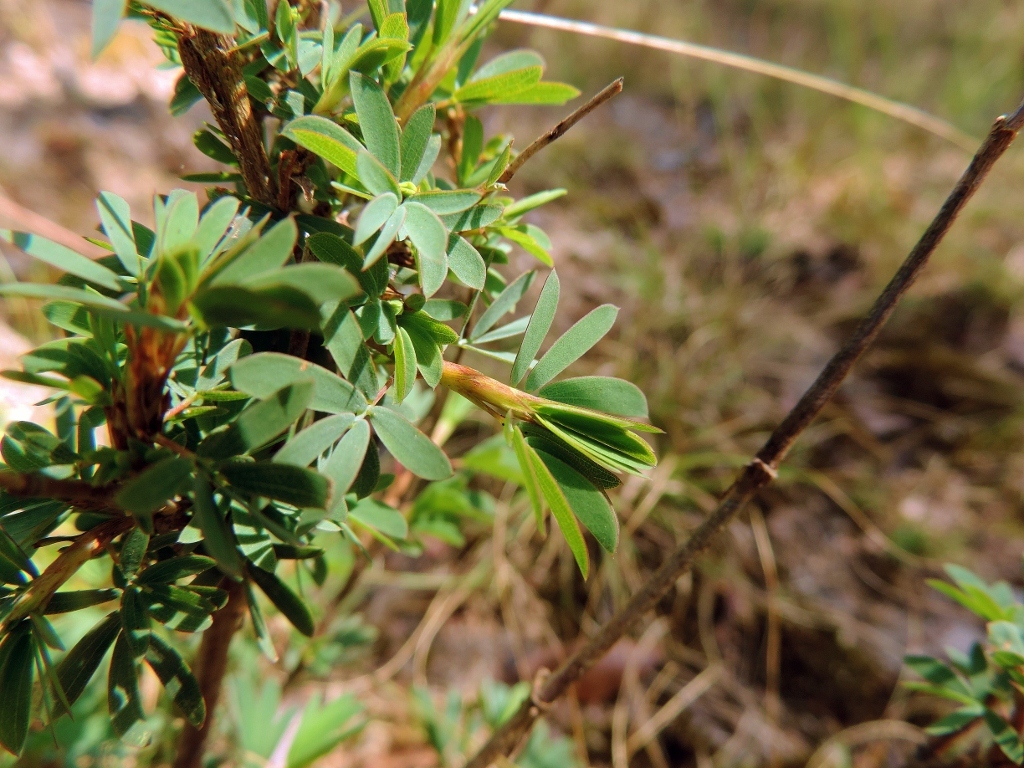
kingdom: Plantae
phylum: Tracheophyta
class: Magnoliopsida
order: Fabales
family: Fabaceae
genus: Kotschya
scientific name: Kotschya strobilantha
